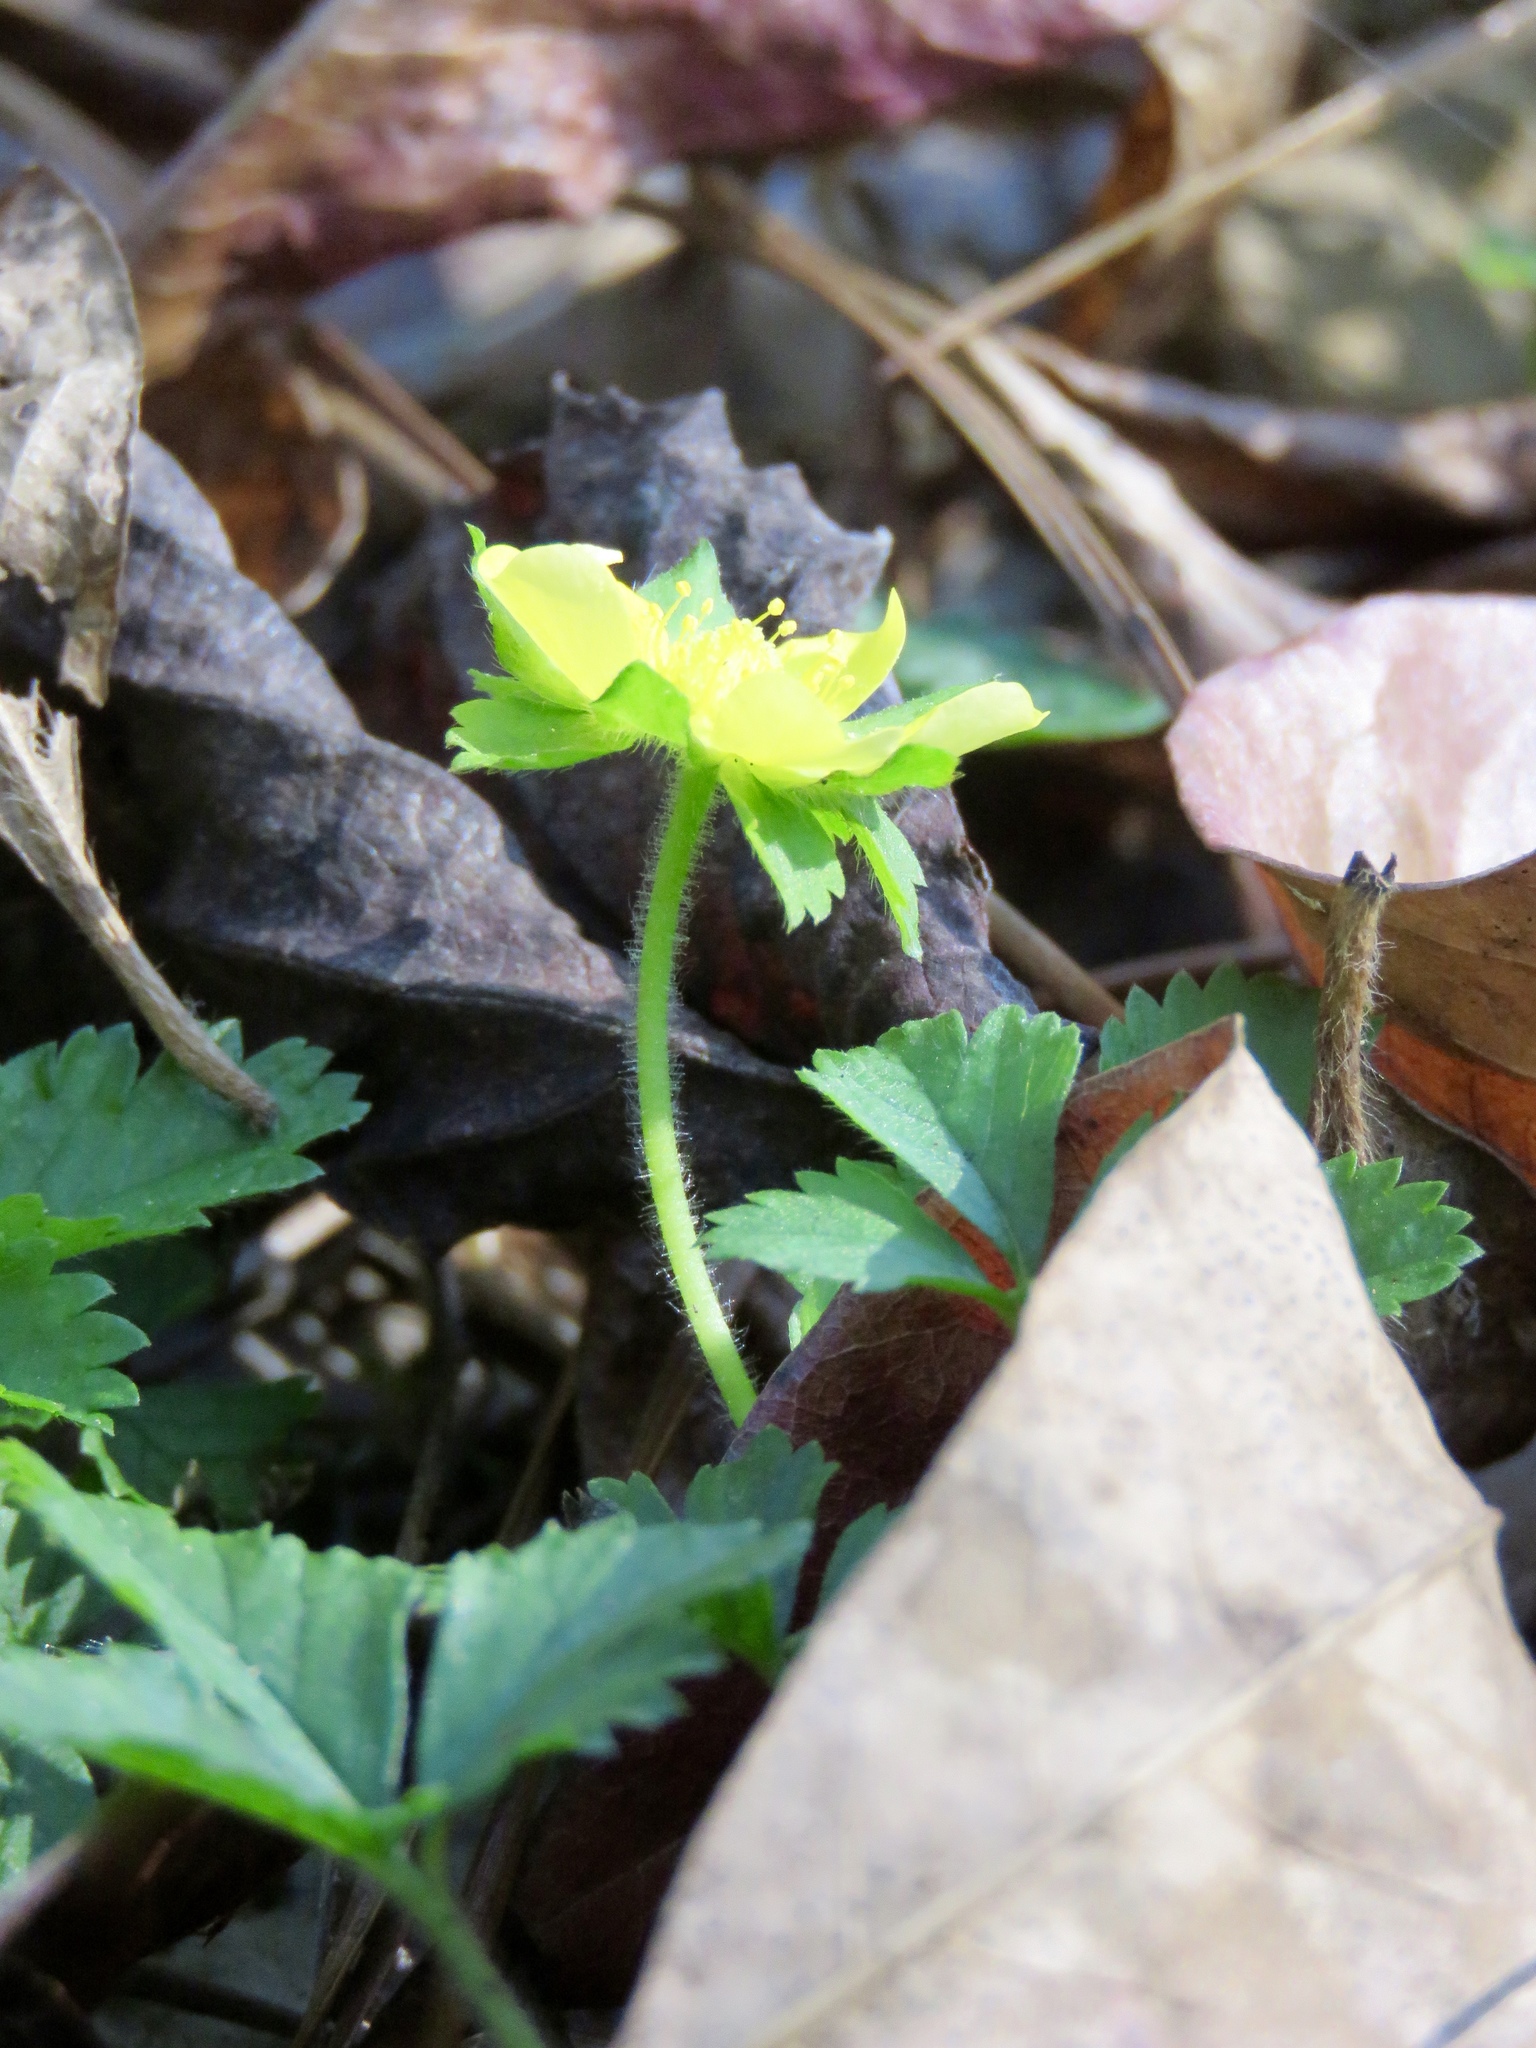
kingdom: Plantae
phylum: Tracheophyta
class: Magnoliopsida
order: Rosales
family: Rosaceae
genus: Potentilla
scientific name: Potentilla indica
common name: Yellow-flowered strawberry
